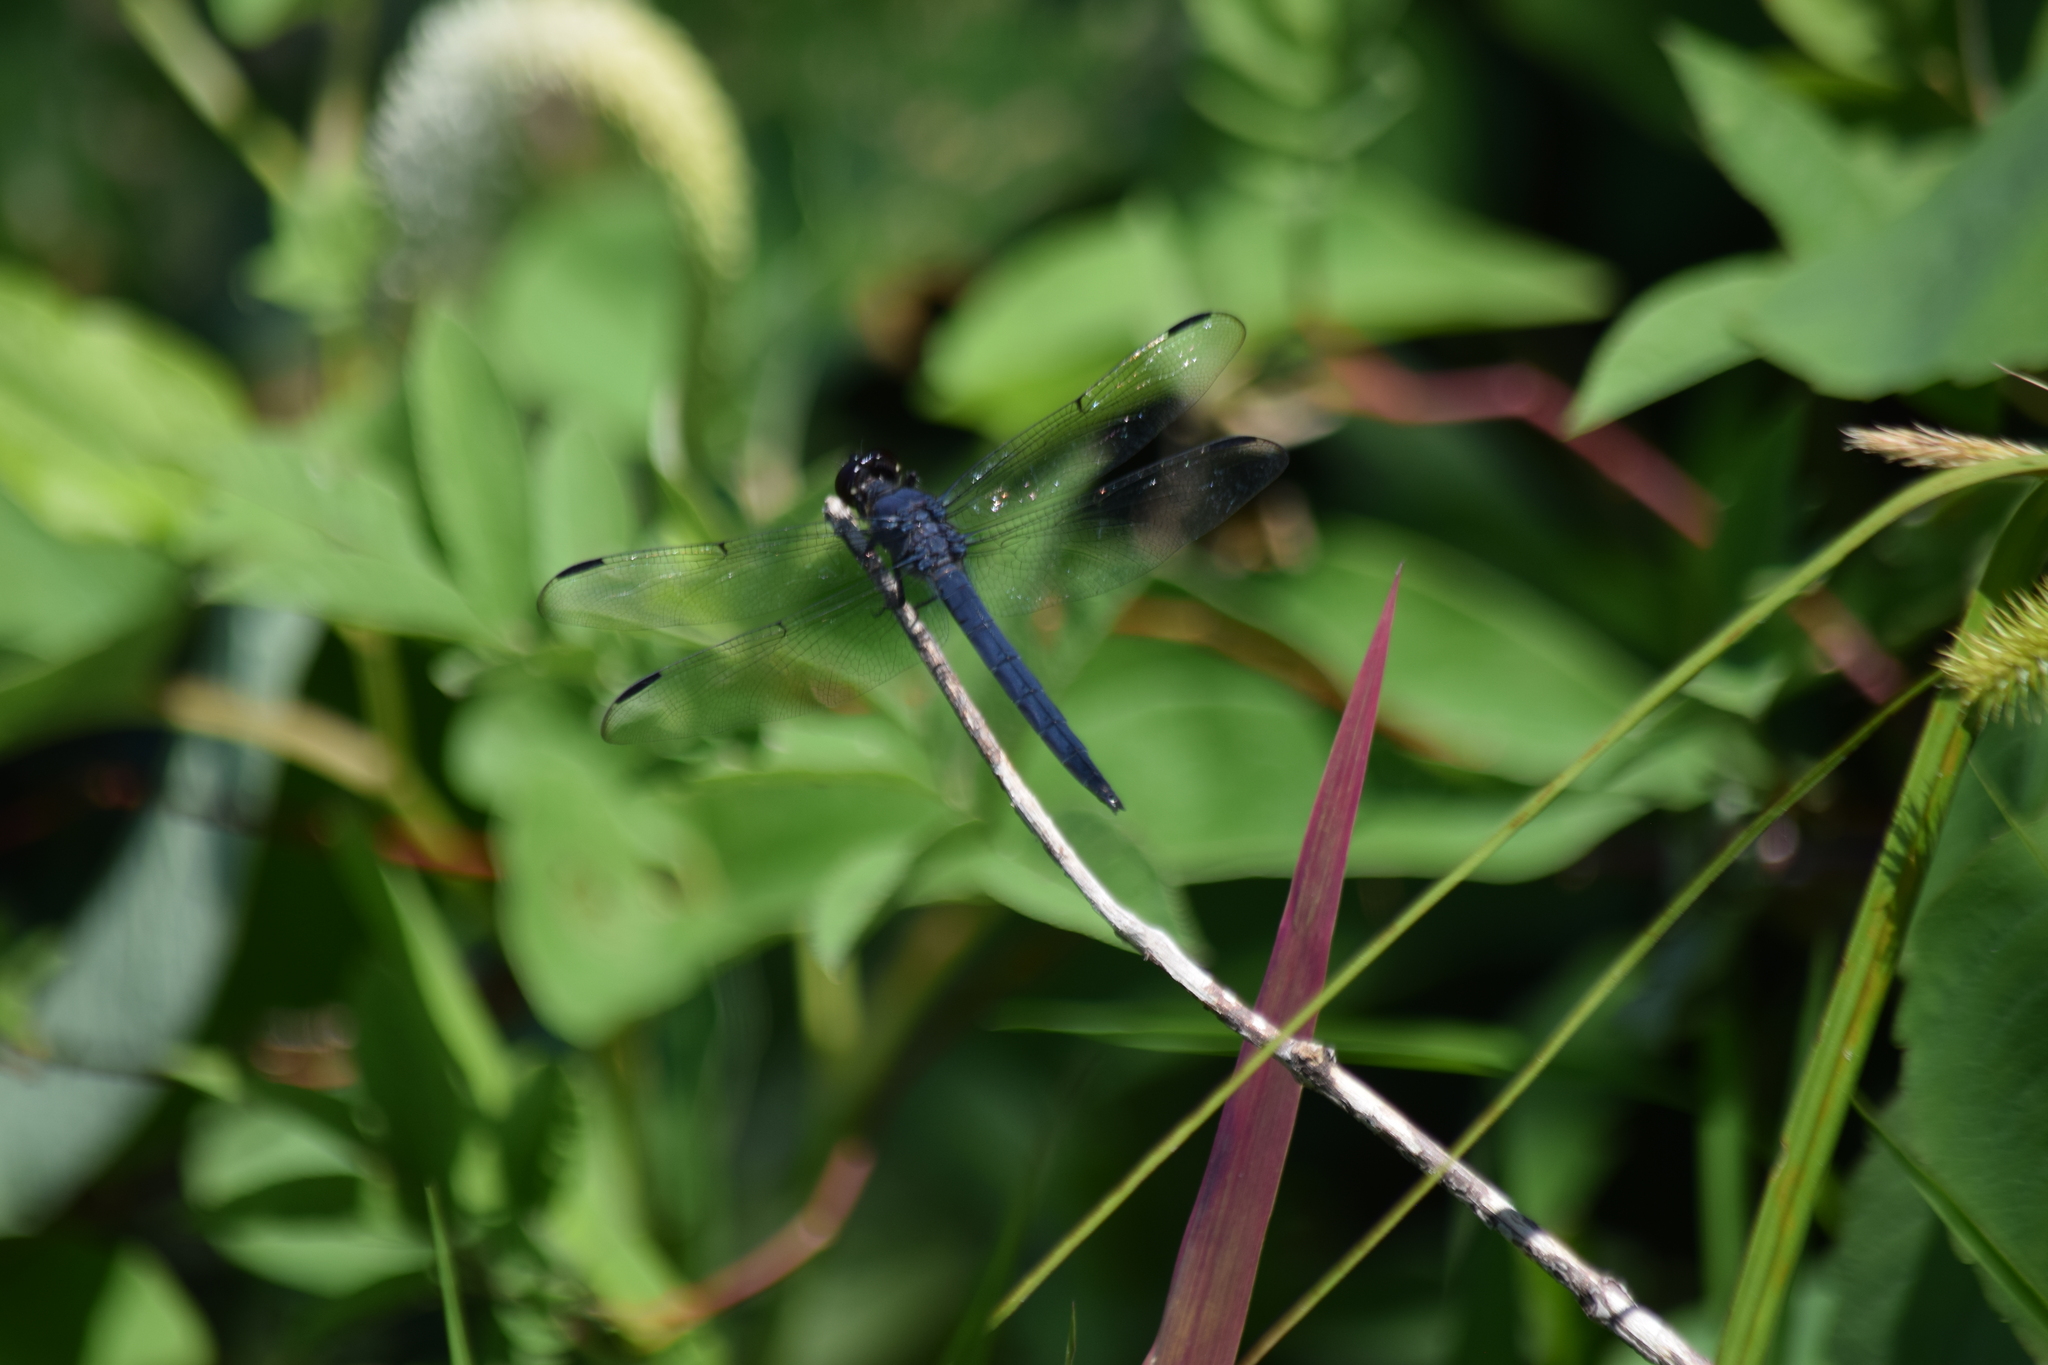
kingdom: Animalia
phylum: Arthropoda
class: Insecta
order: Odonata
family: Libellulidae
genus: Libellula
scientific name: Libellula incesta
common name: Slaty skimmer
